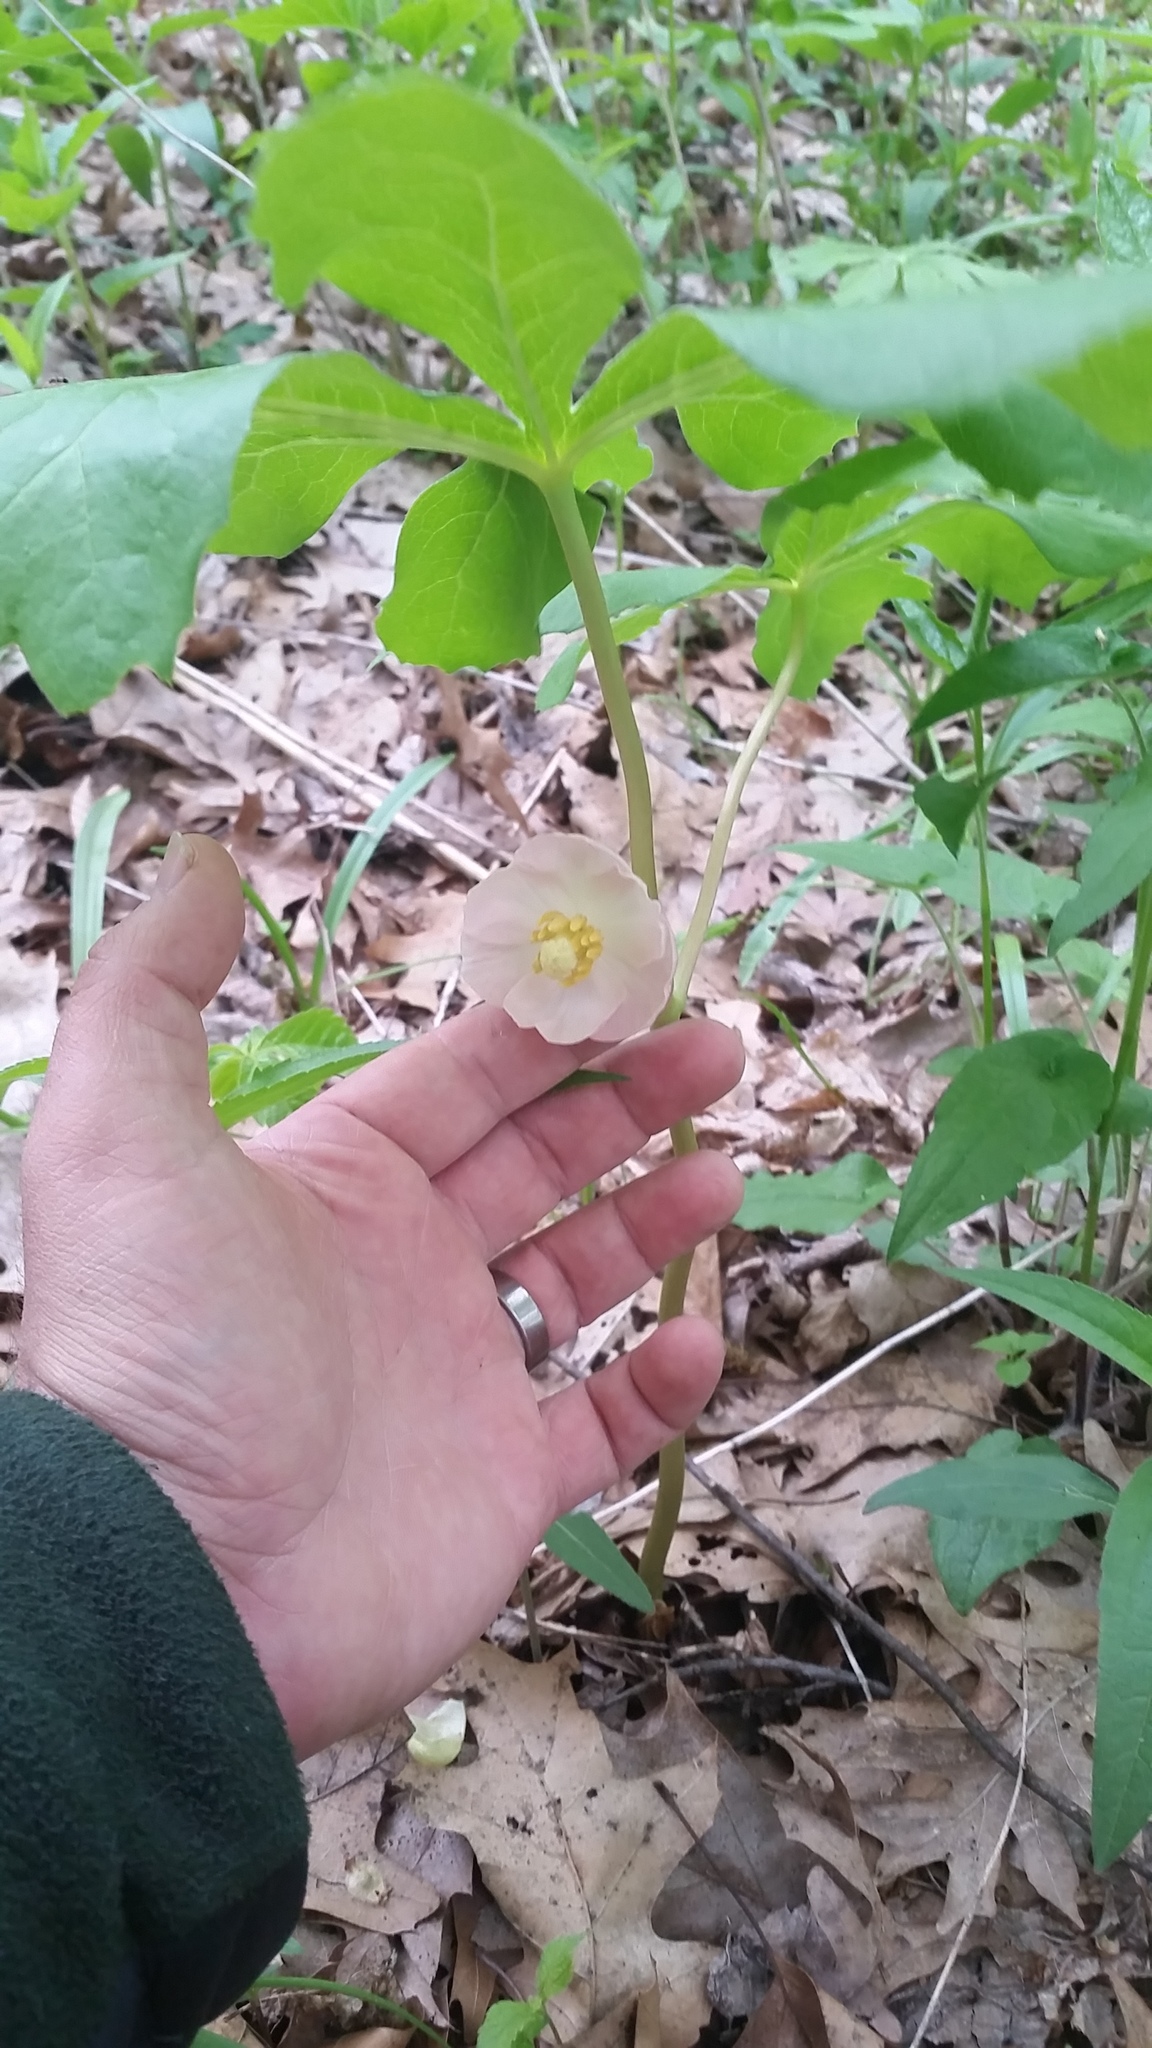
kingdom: Plantae
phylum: Tracheophyta
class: Magnoliopsida
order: Ranunculales
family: Berberidaceae
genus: Podophyllum
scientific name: Podophyllum peltatum
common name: Wild mandrake
